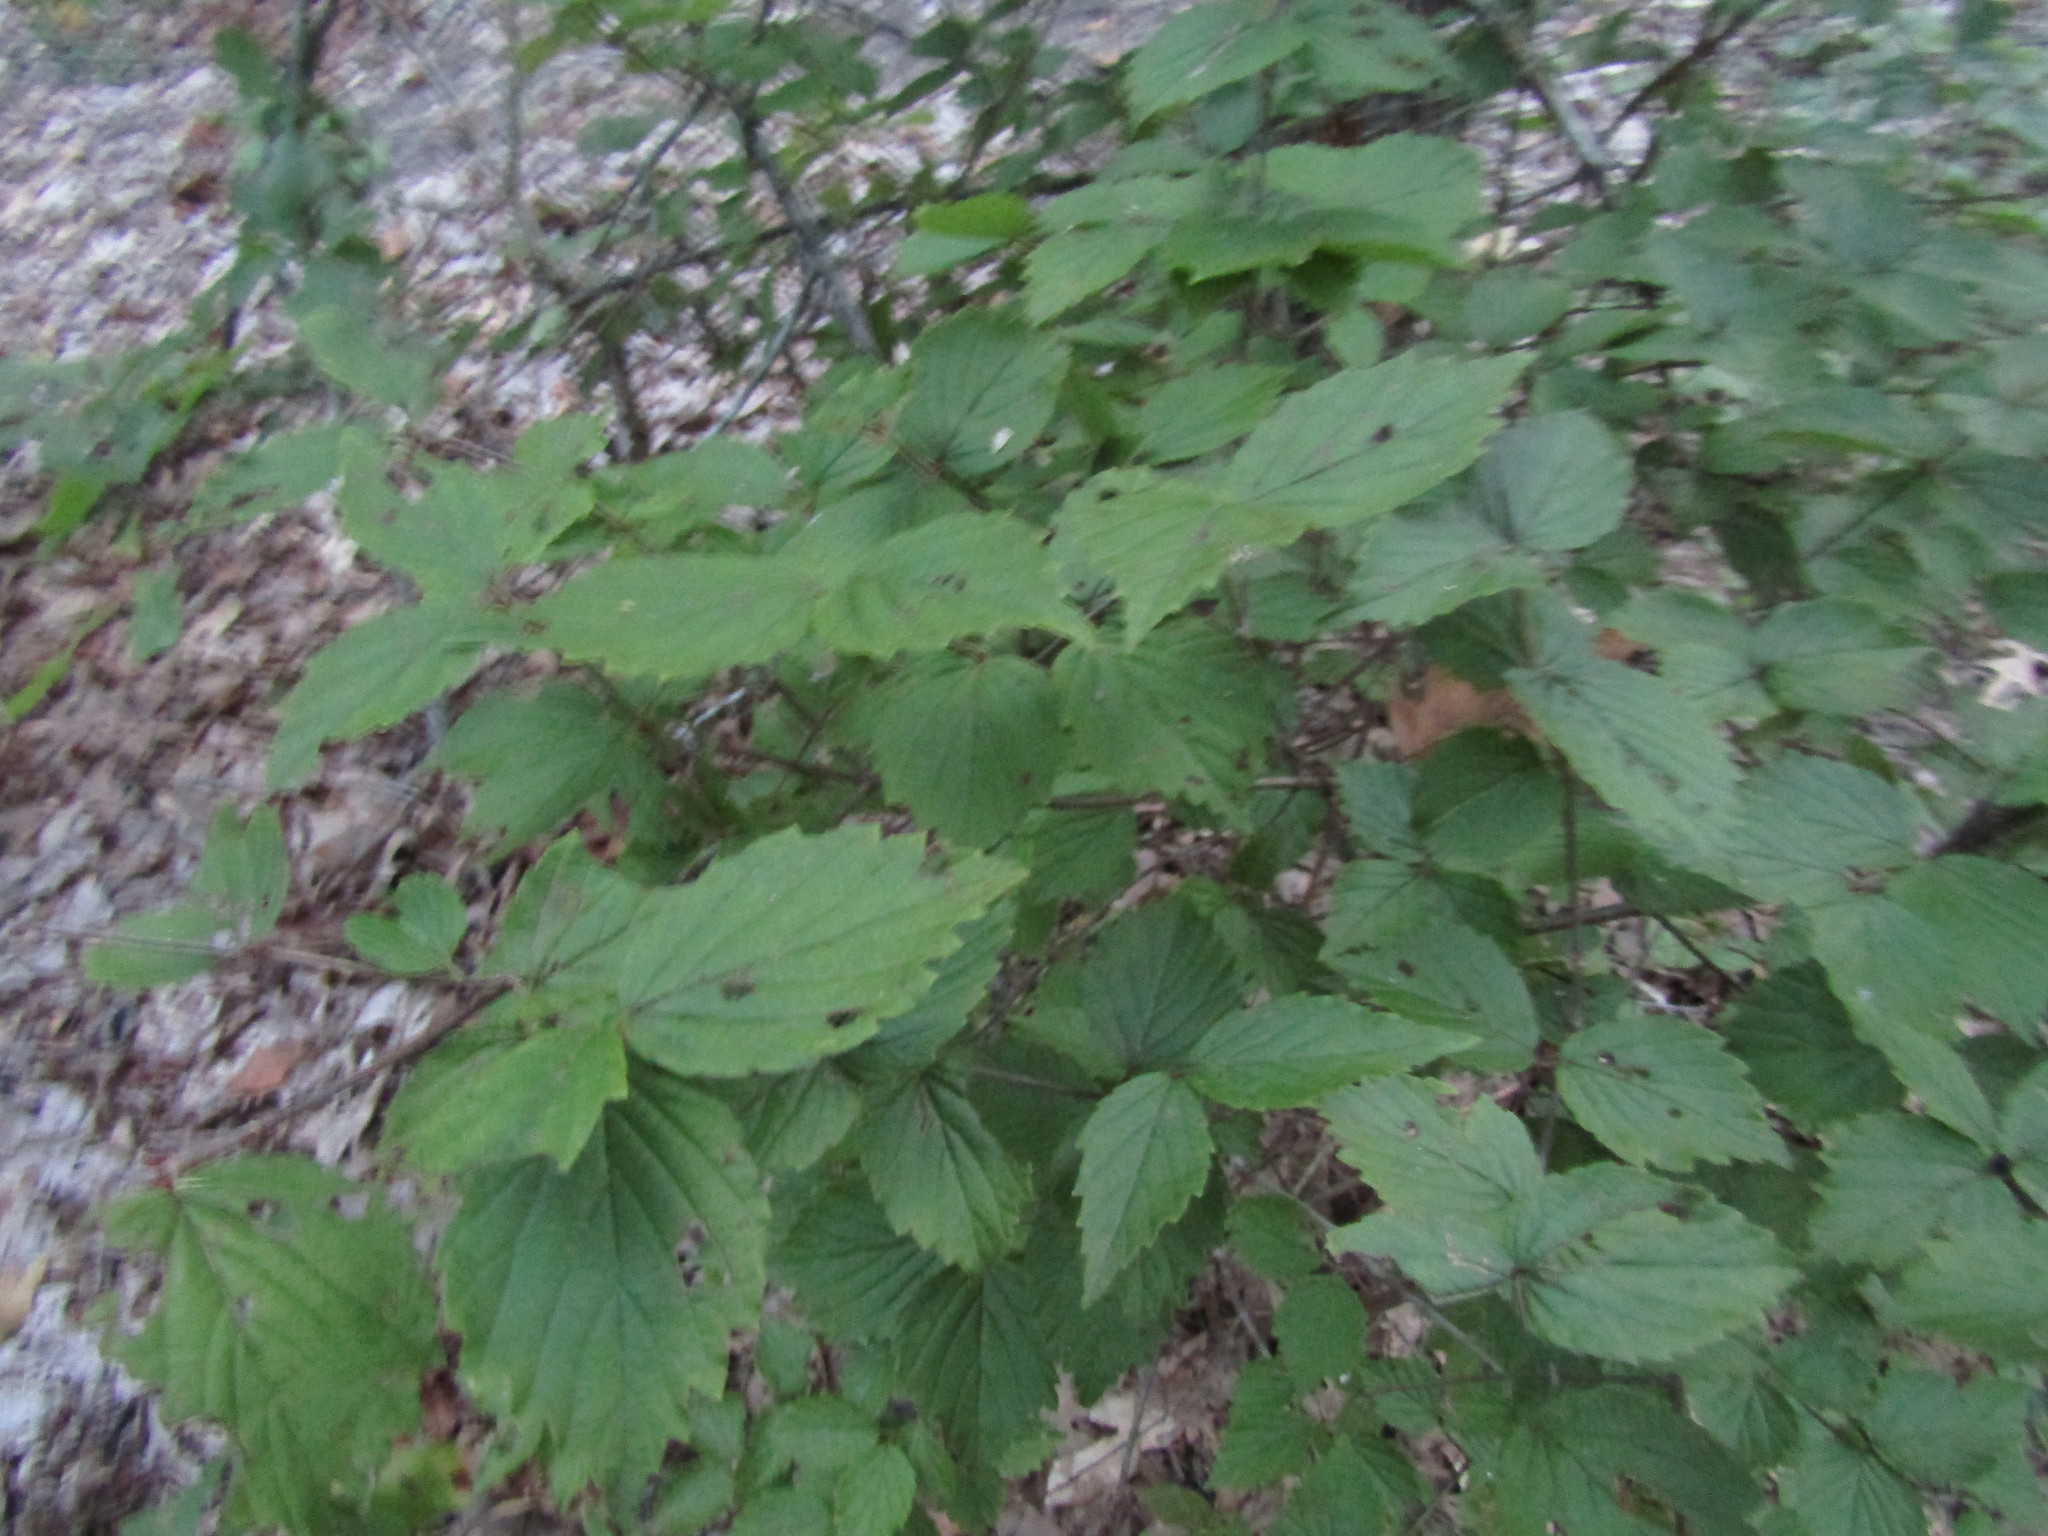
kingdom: Plantae
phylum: Tracheophyta
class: Magnoliopsida
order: Dipsacales
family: Viburnaceae
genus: Viburnum
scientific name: Viburnum rafinesqueanum
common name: Downy arrow-wood
